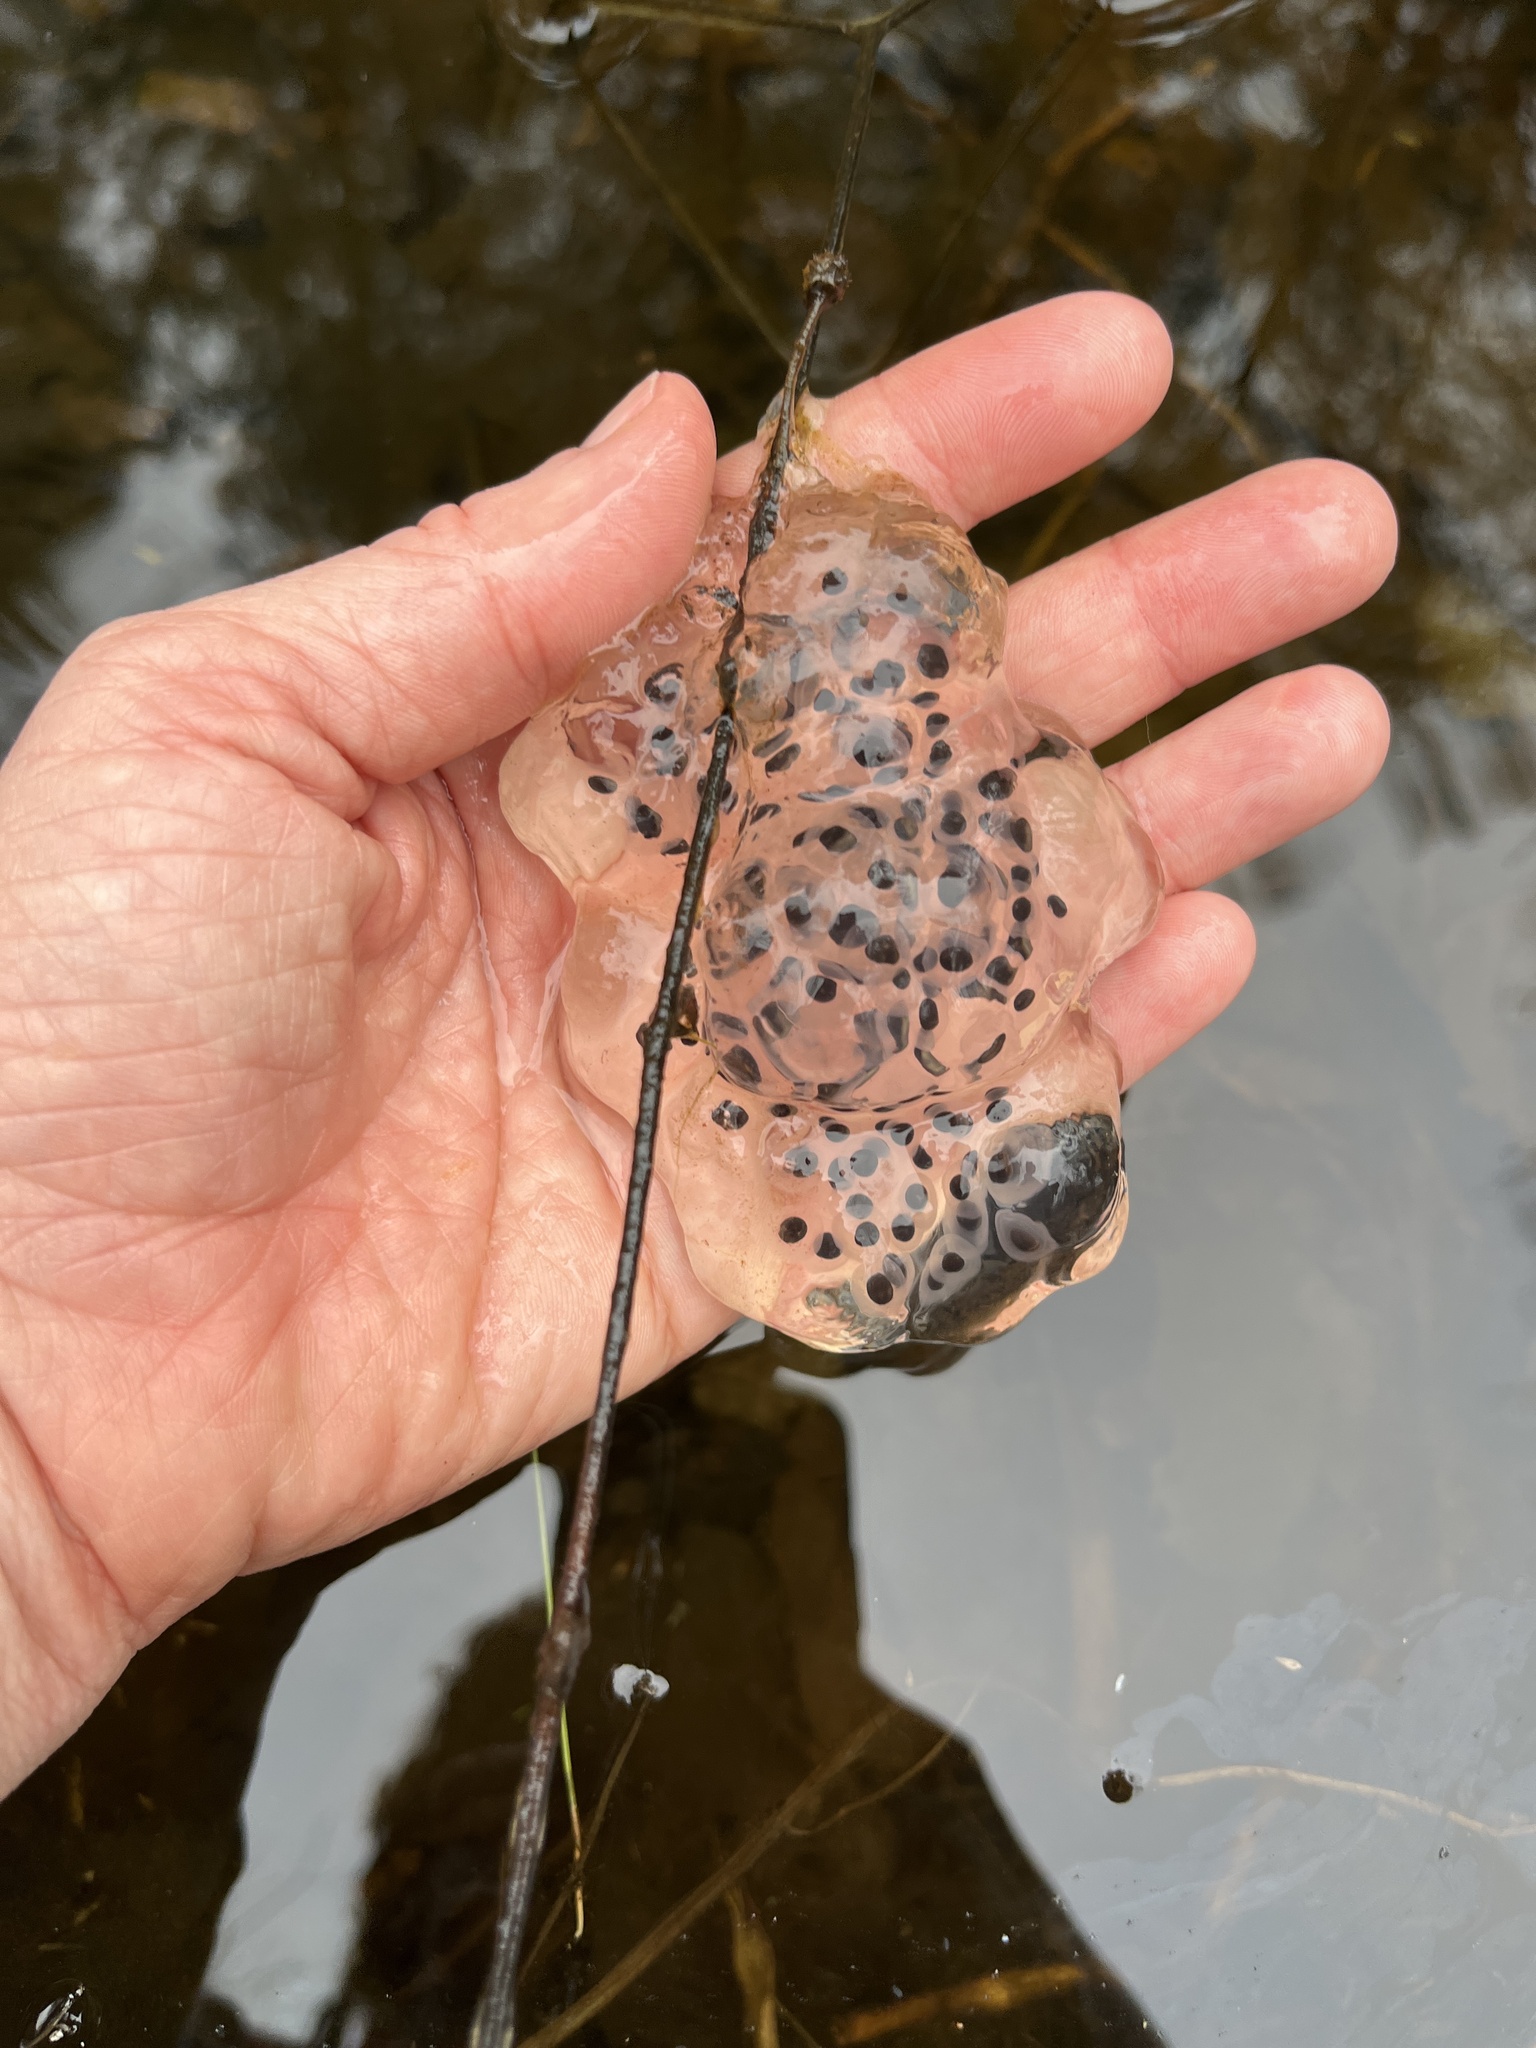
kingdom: Animalia
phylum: Chordata
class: Amphibia
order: Caudata
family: Ambystomatidae
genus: Ambystoma
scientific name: Ambystoma maculatum
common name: Spotted salamander
